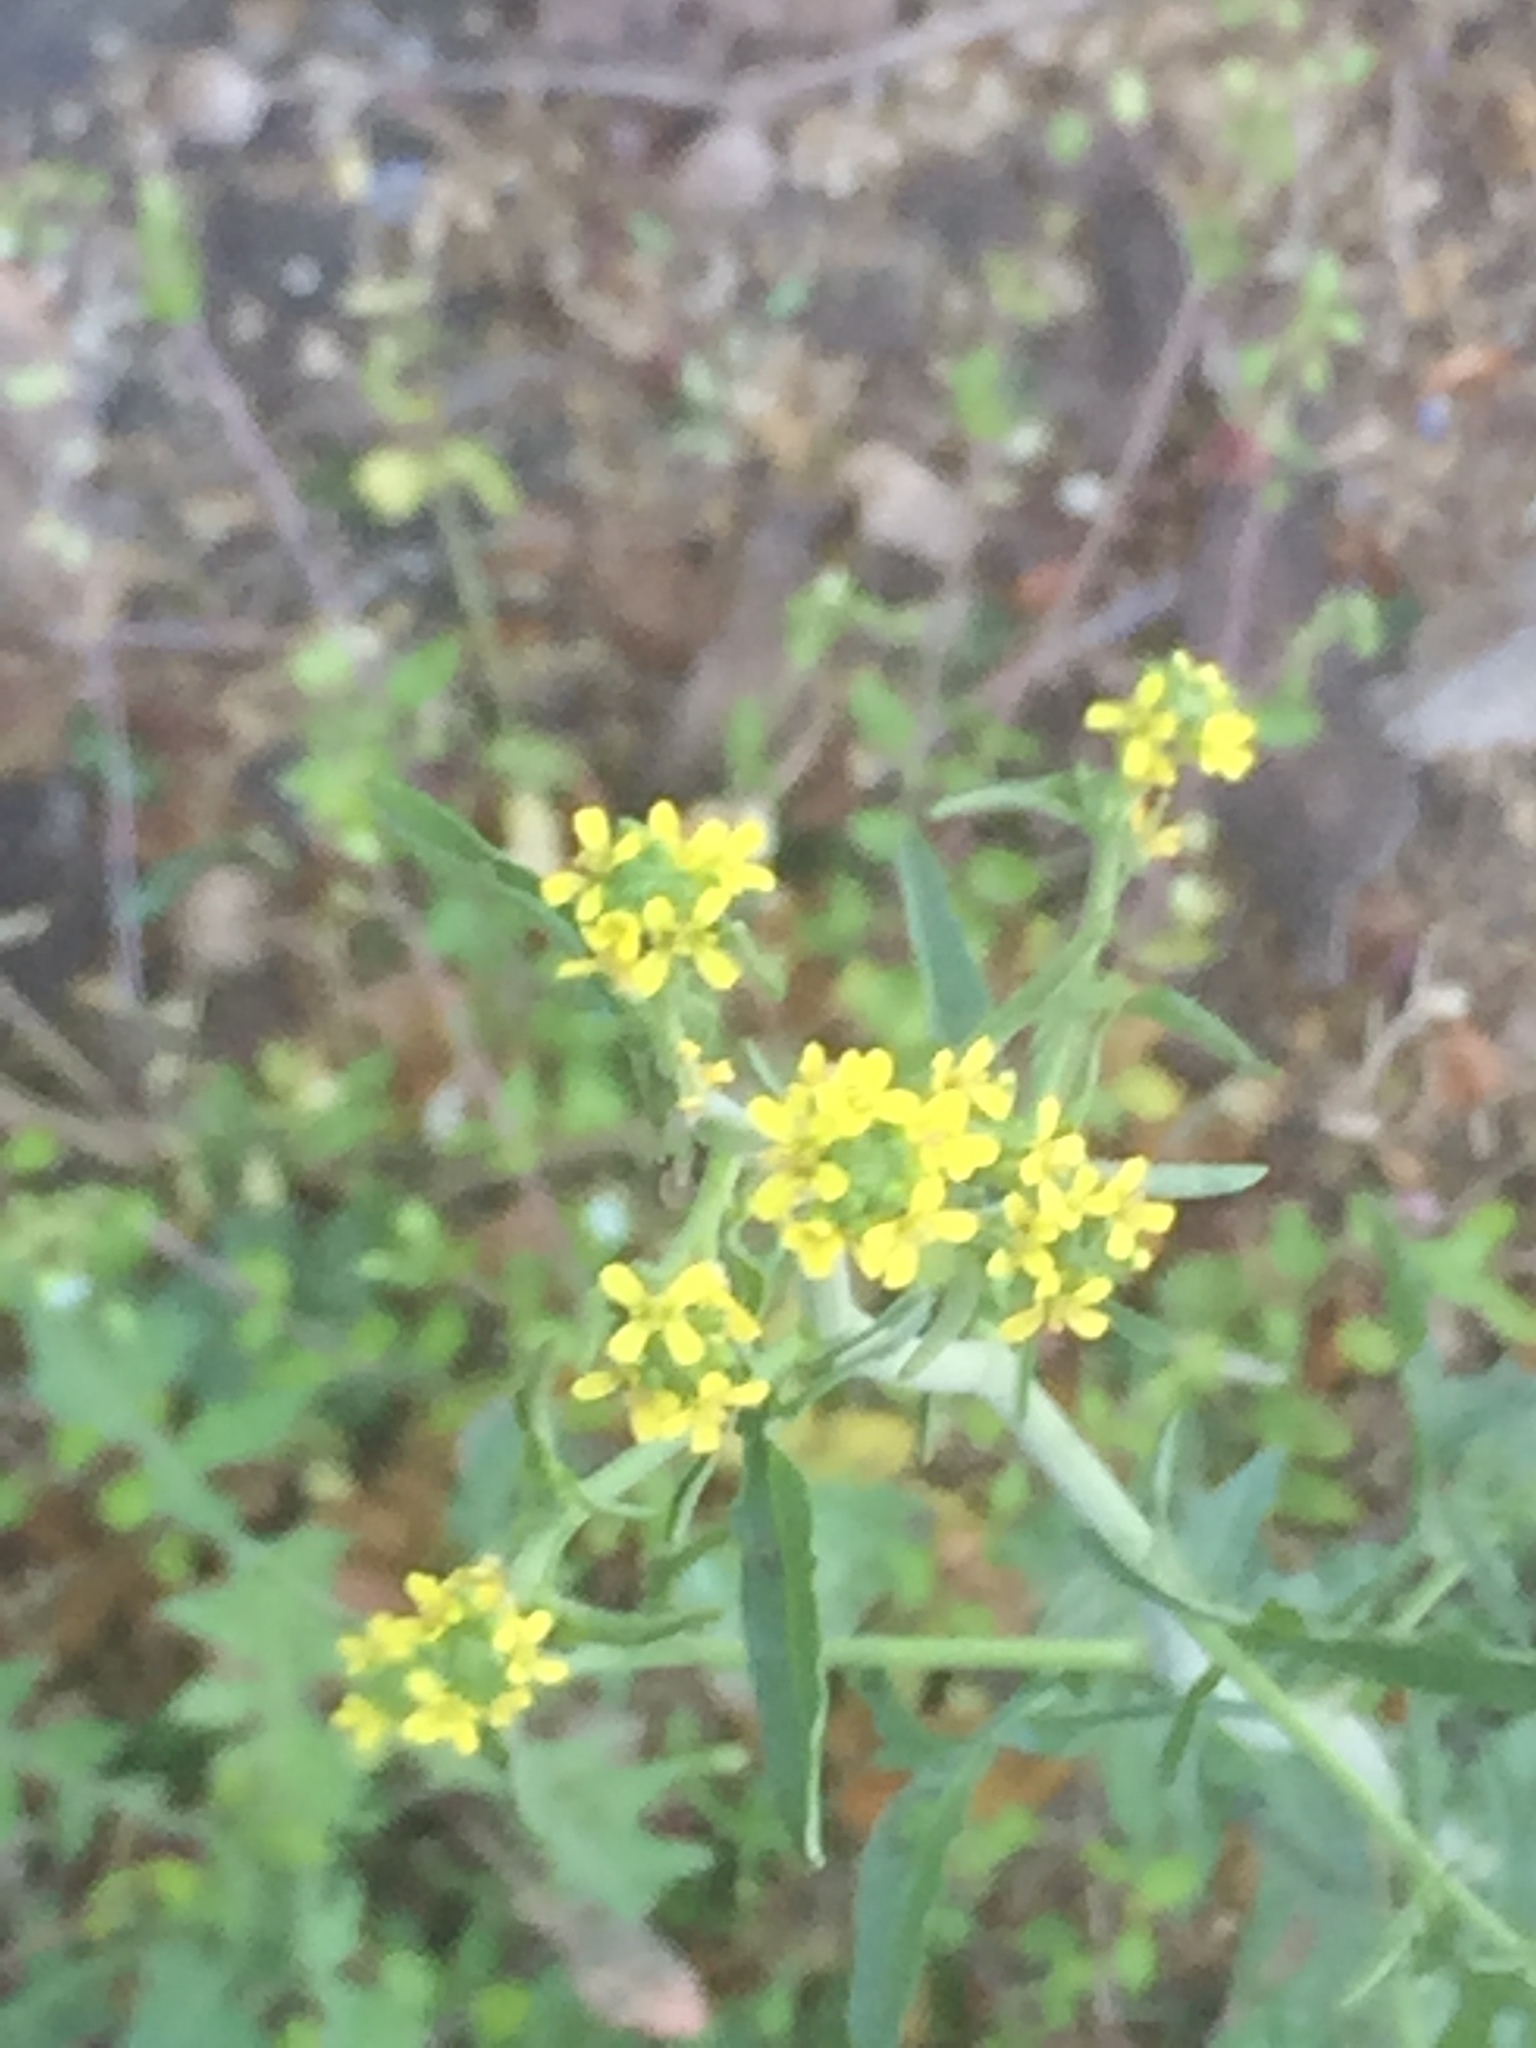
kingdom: Plantae
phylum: Tracheophyta
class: Magnoliopsida
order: Brassicales
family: Brassicaceae
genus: Sisymbrium
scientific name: Sisymbrium officinale
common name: Hedge mustard
